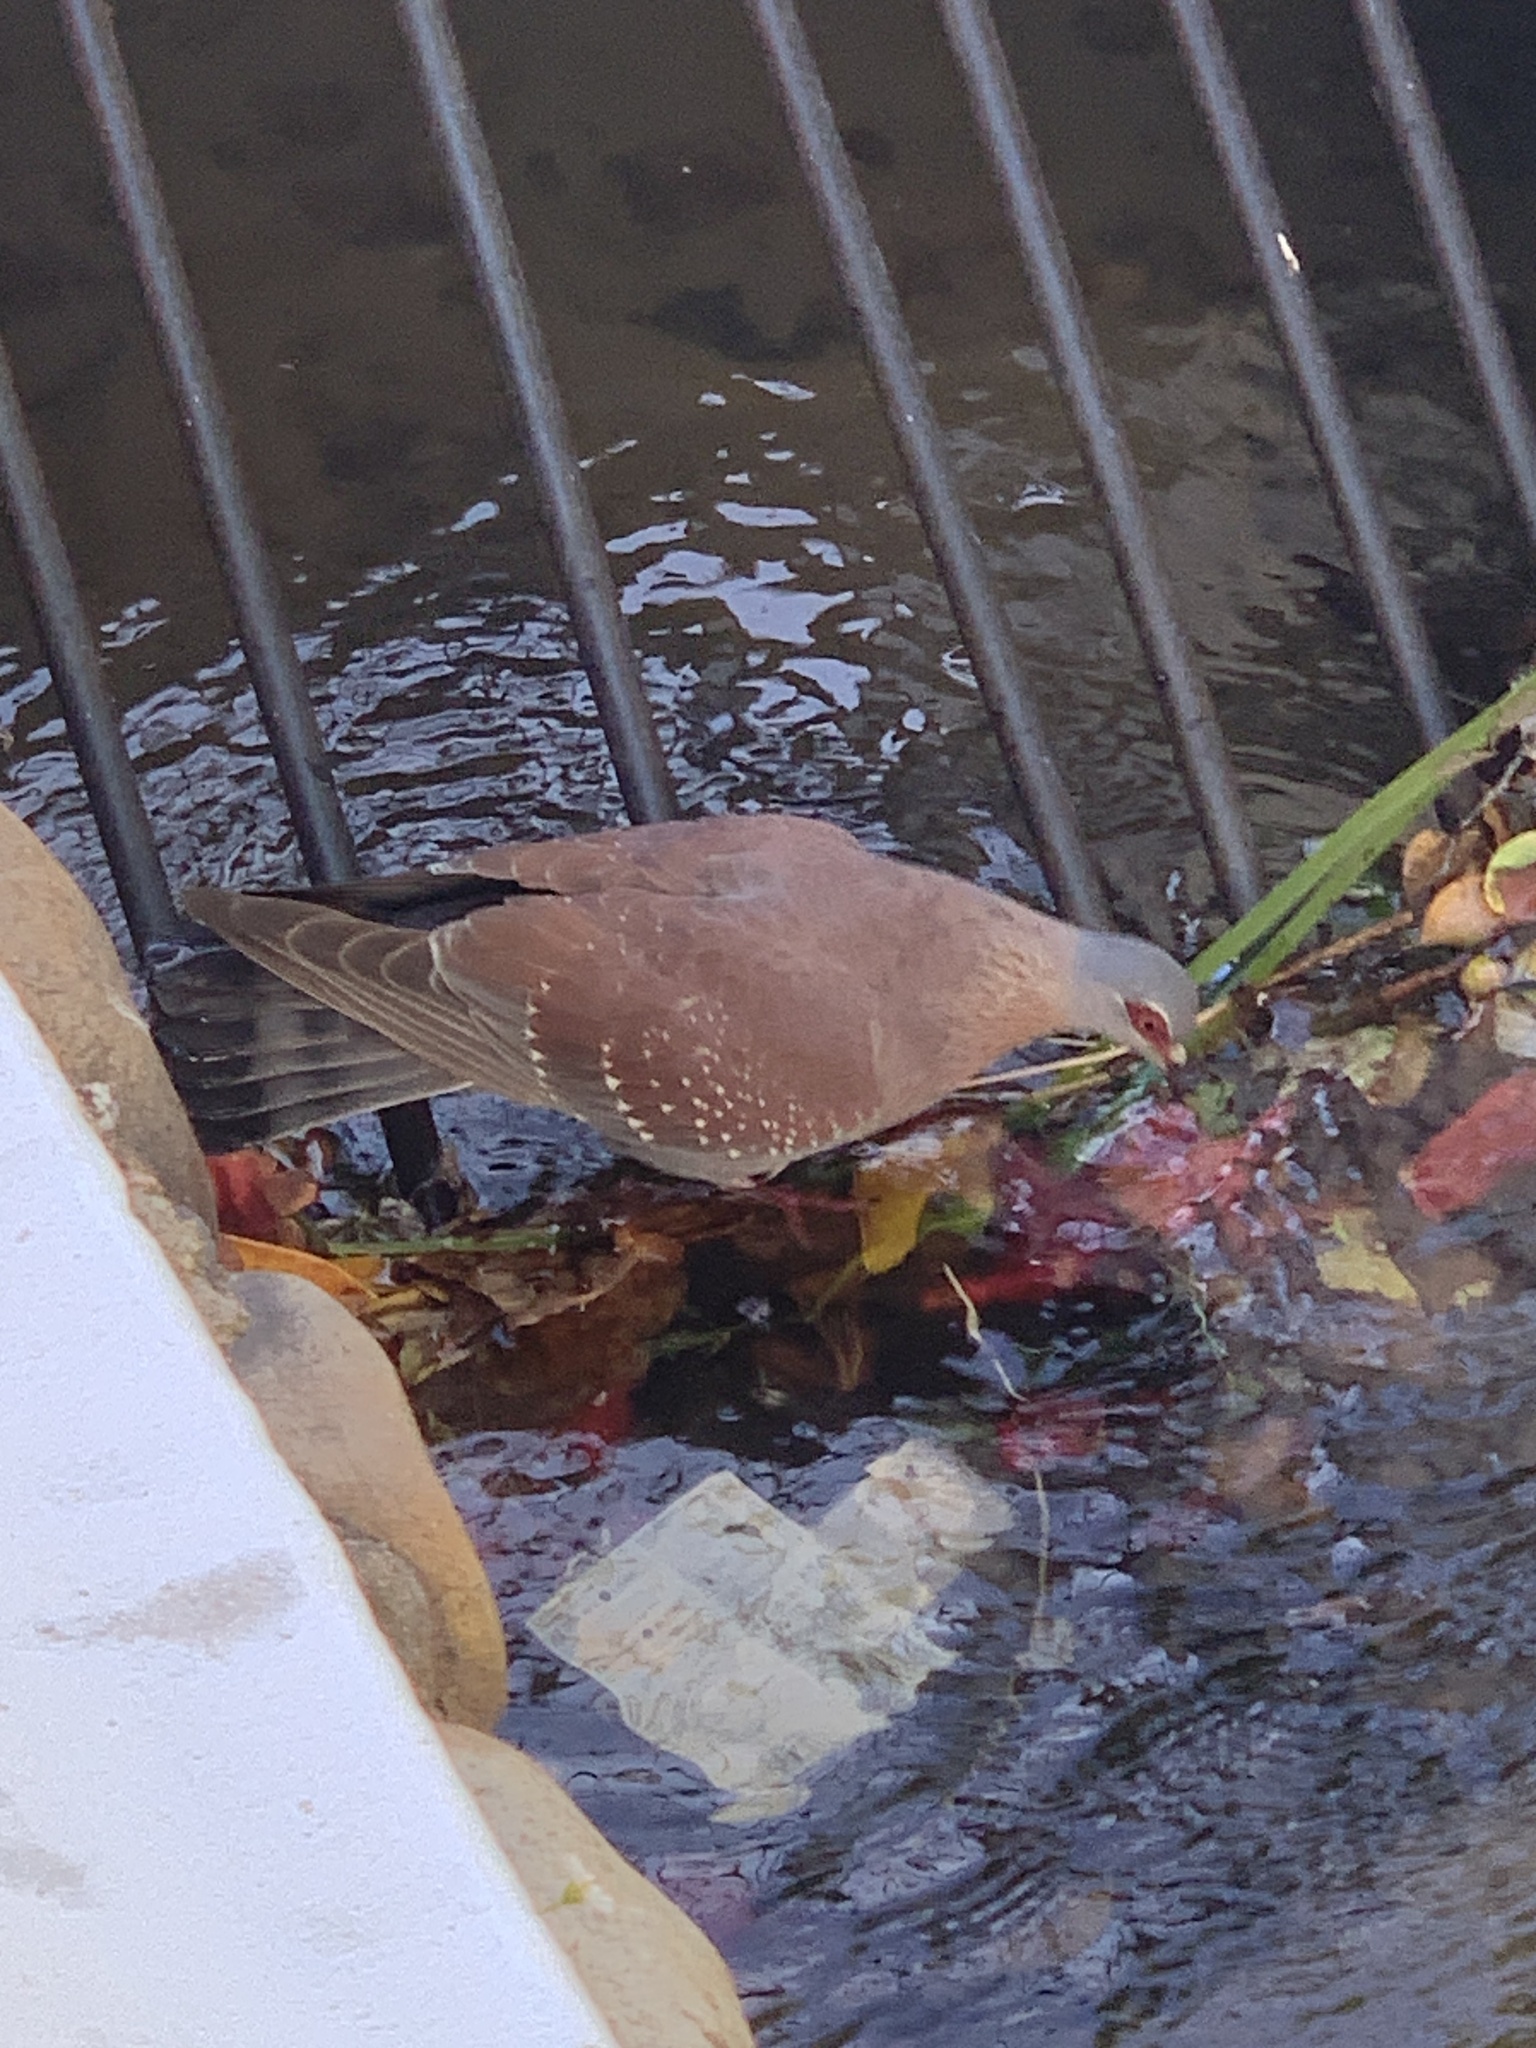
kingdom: Animalia
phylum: Chordata
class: Aves
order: Columbiformes
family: Columbidae
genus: Columba
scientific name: Columba guinea
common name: Speckled pigeon
